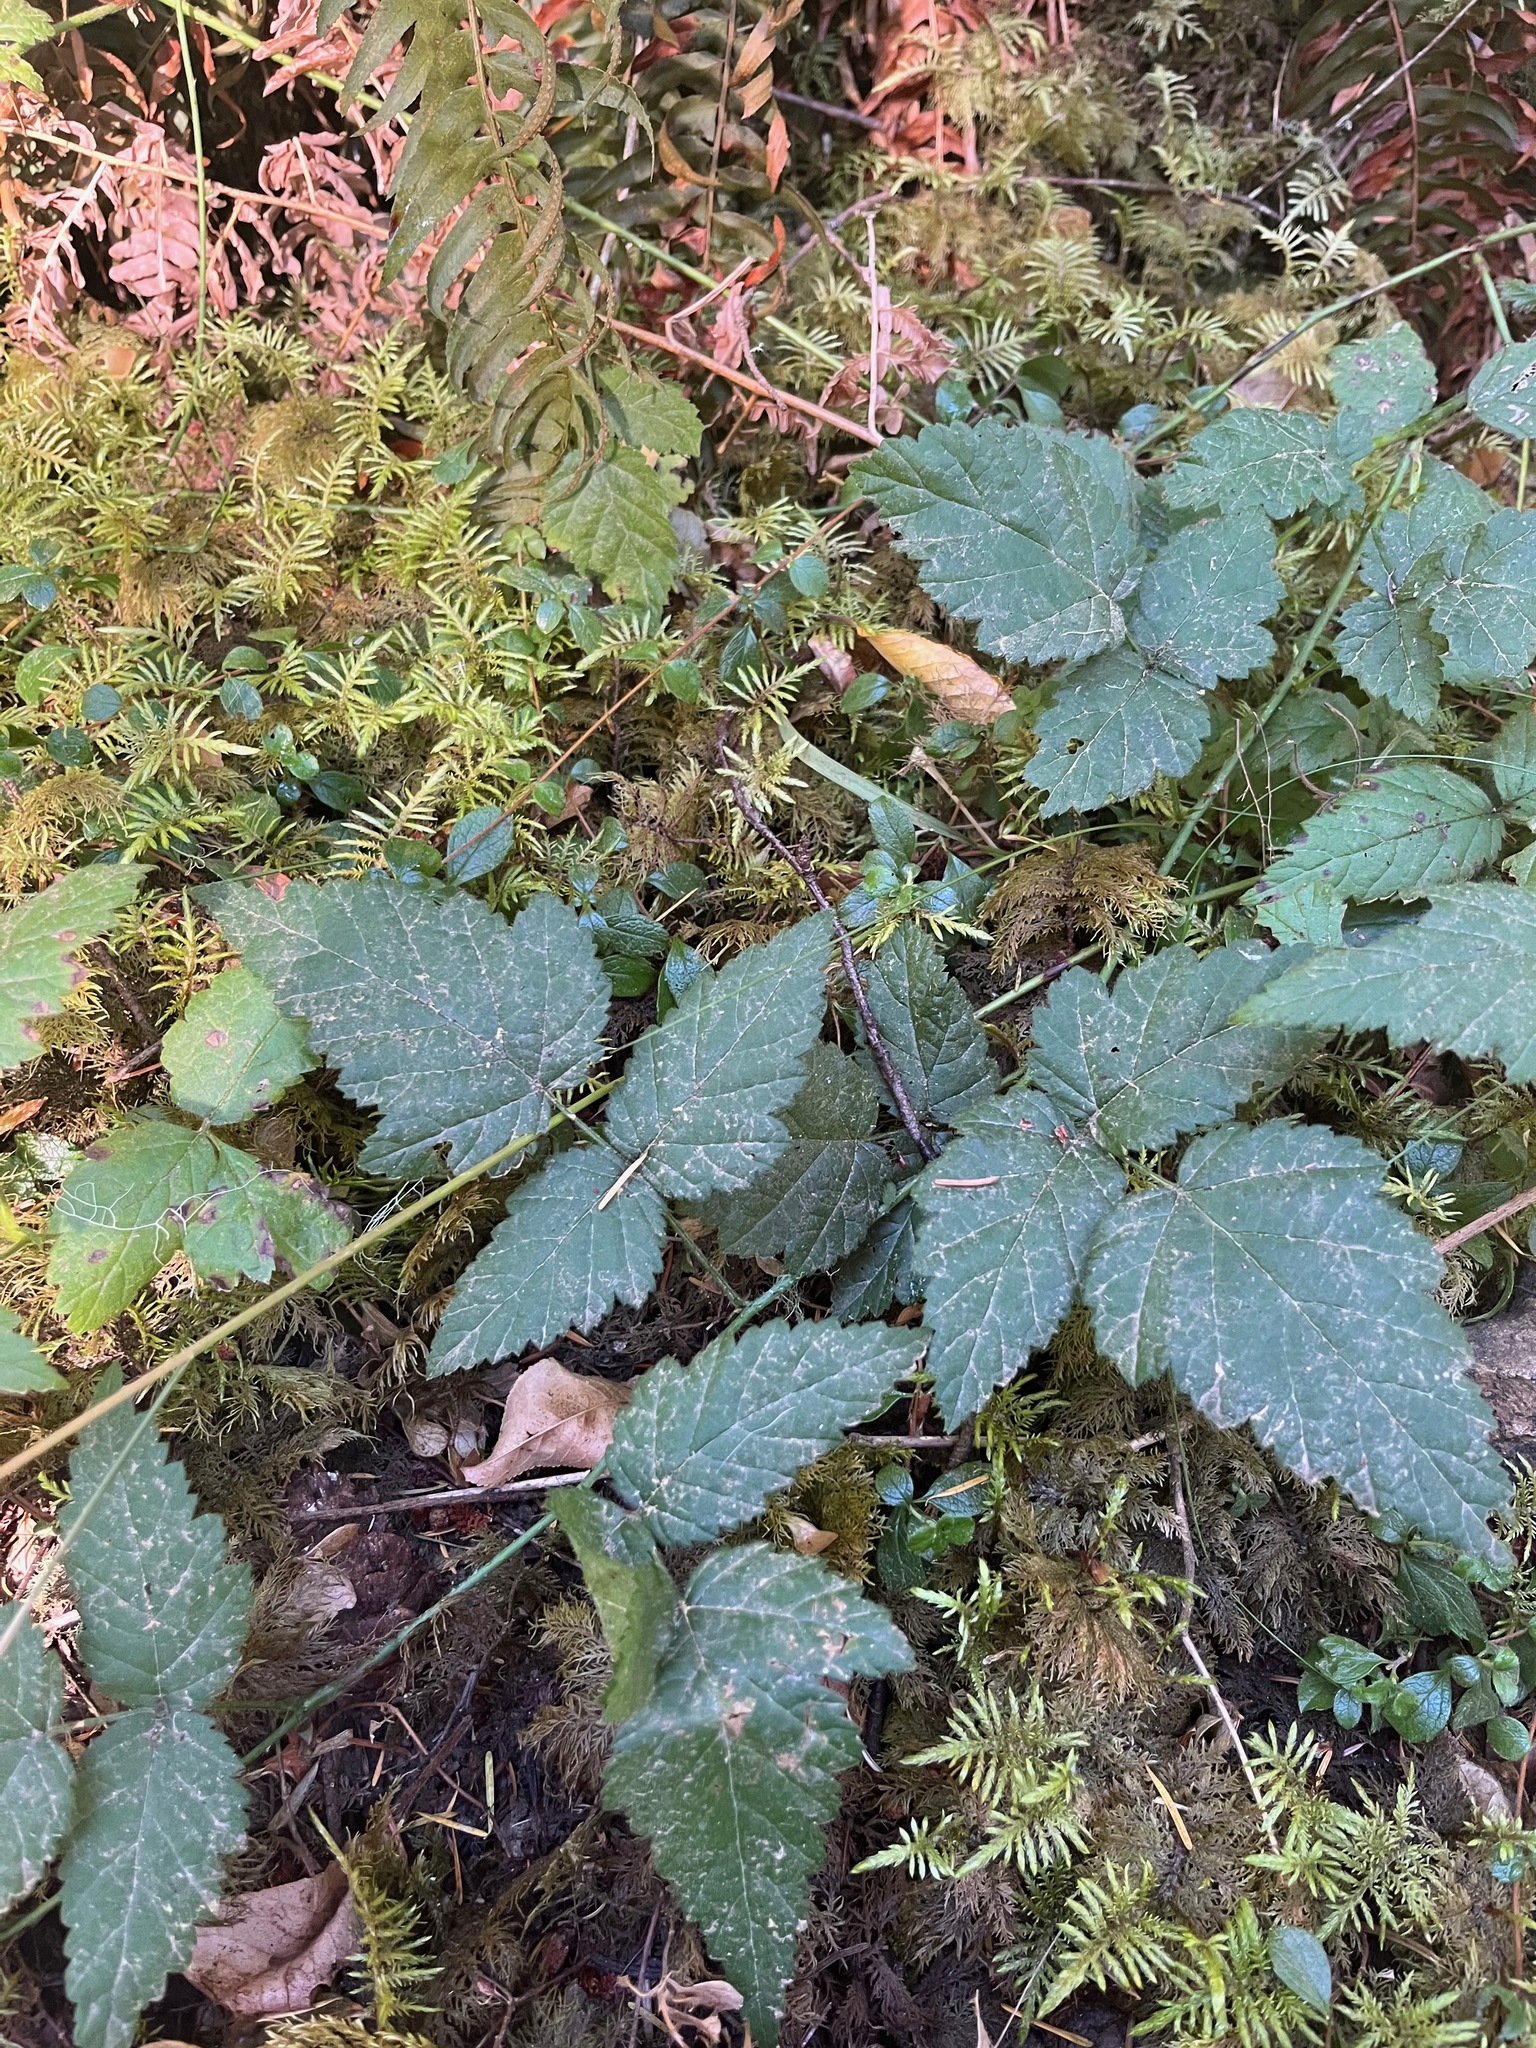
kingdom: Plantae
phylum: Tracheophyta
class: Magnoliopsida
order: Rosales
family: Rosaceae
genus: Rubus
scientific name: Rubus ursinus
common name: Pacific blackberry
